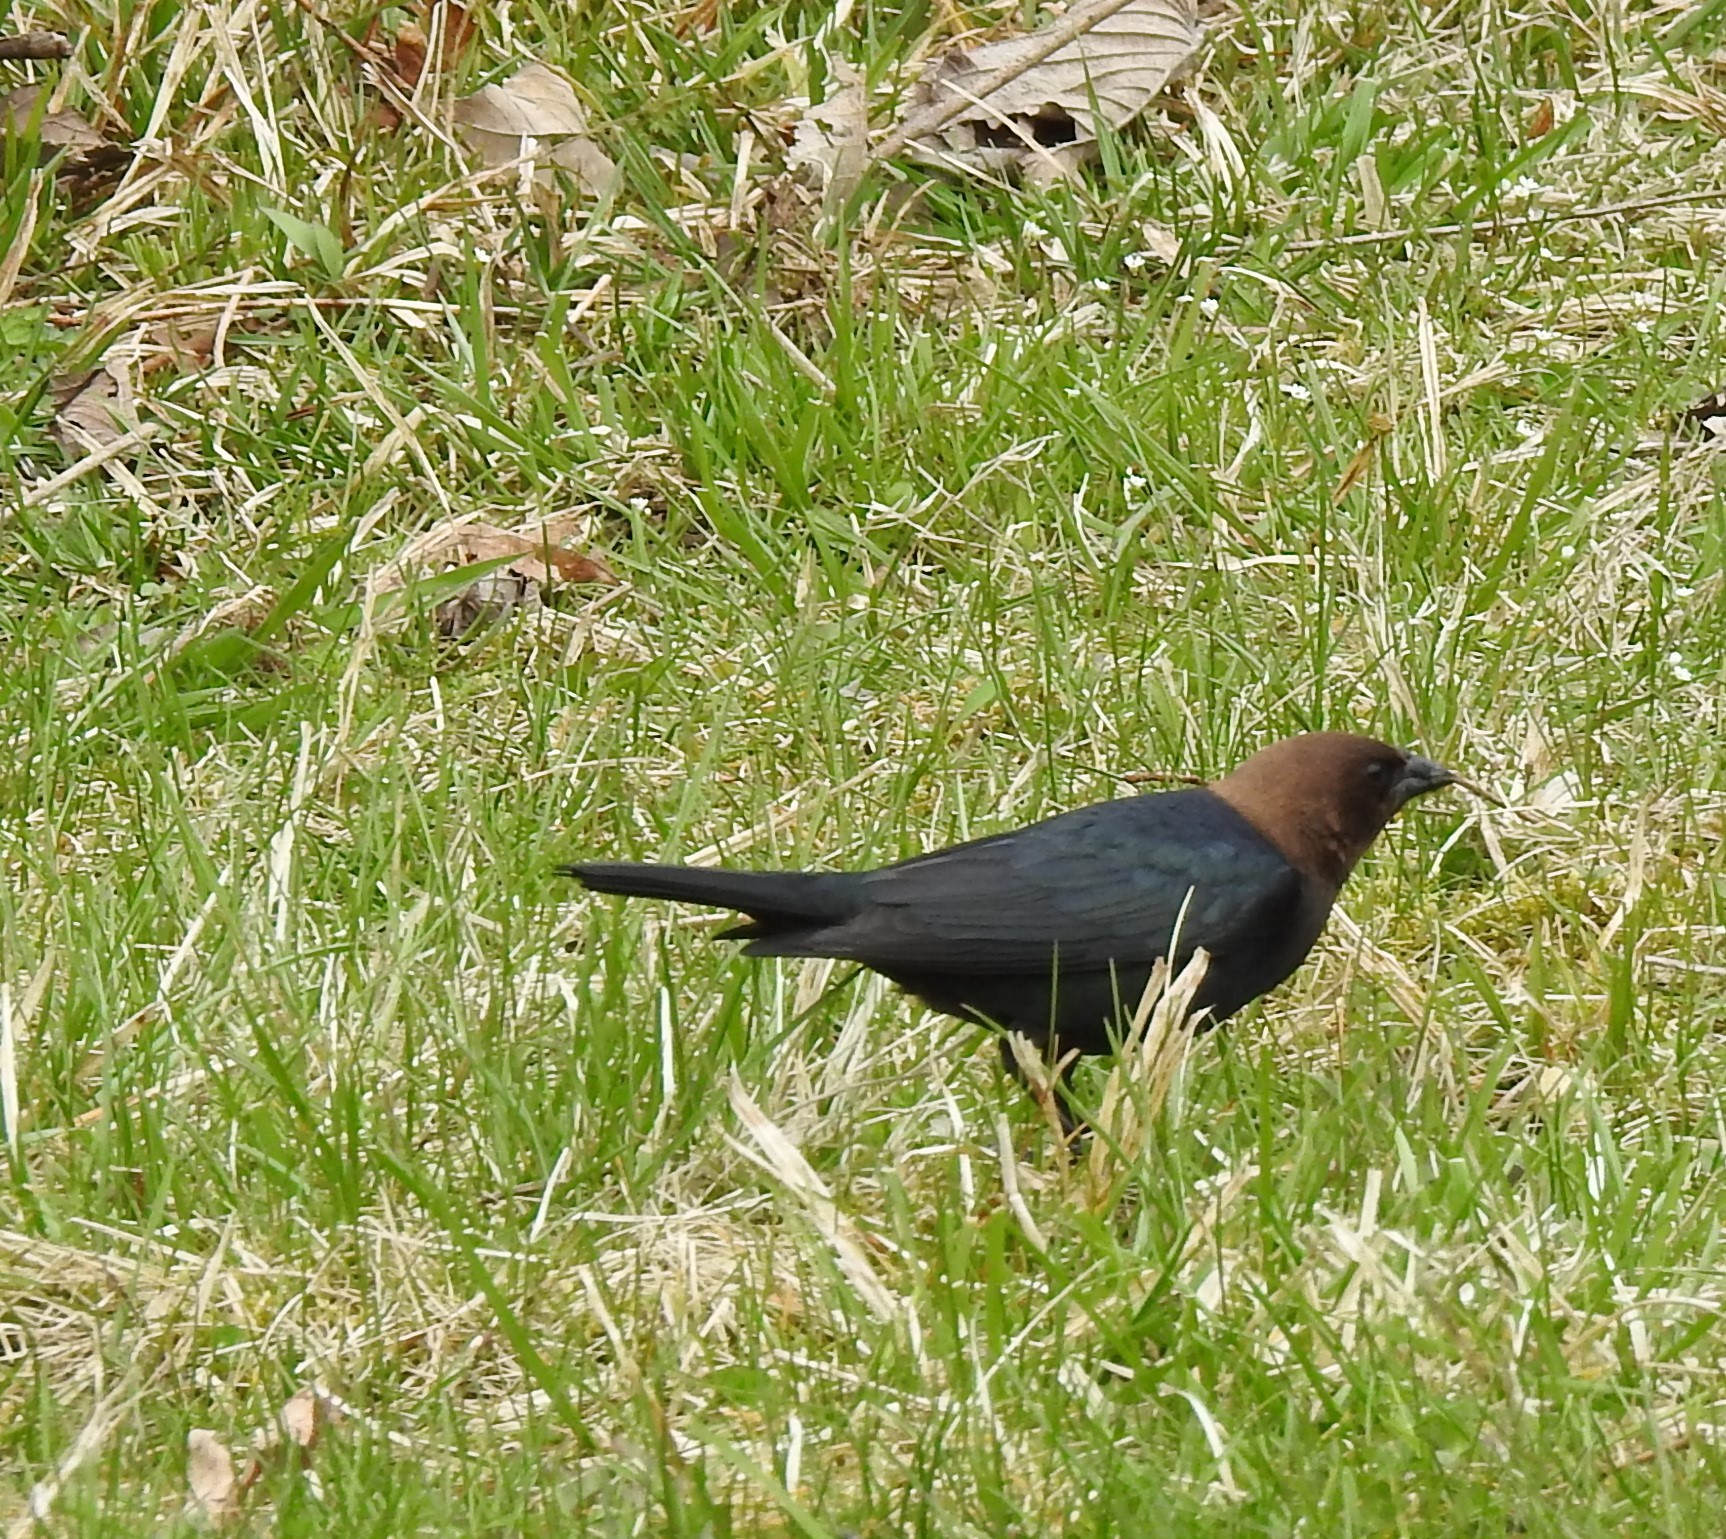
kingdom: Animalia
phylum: Chordata
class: Aves
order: Passeriformes
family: Icteridae
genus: Molothrus
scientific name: Molothrus ater
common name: Brown-headed cowbird
